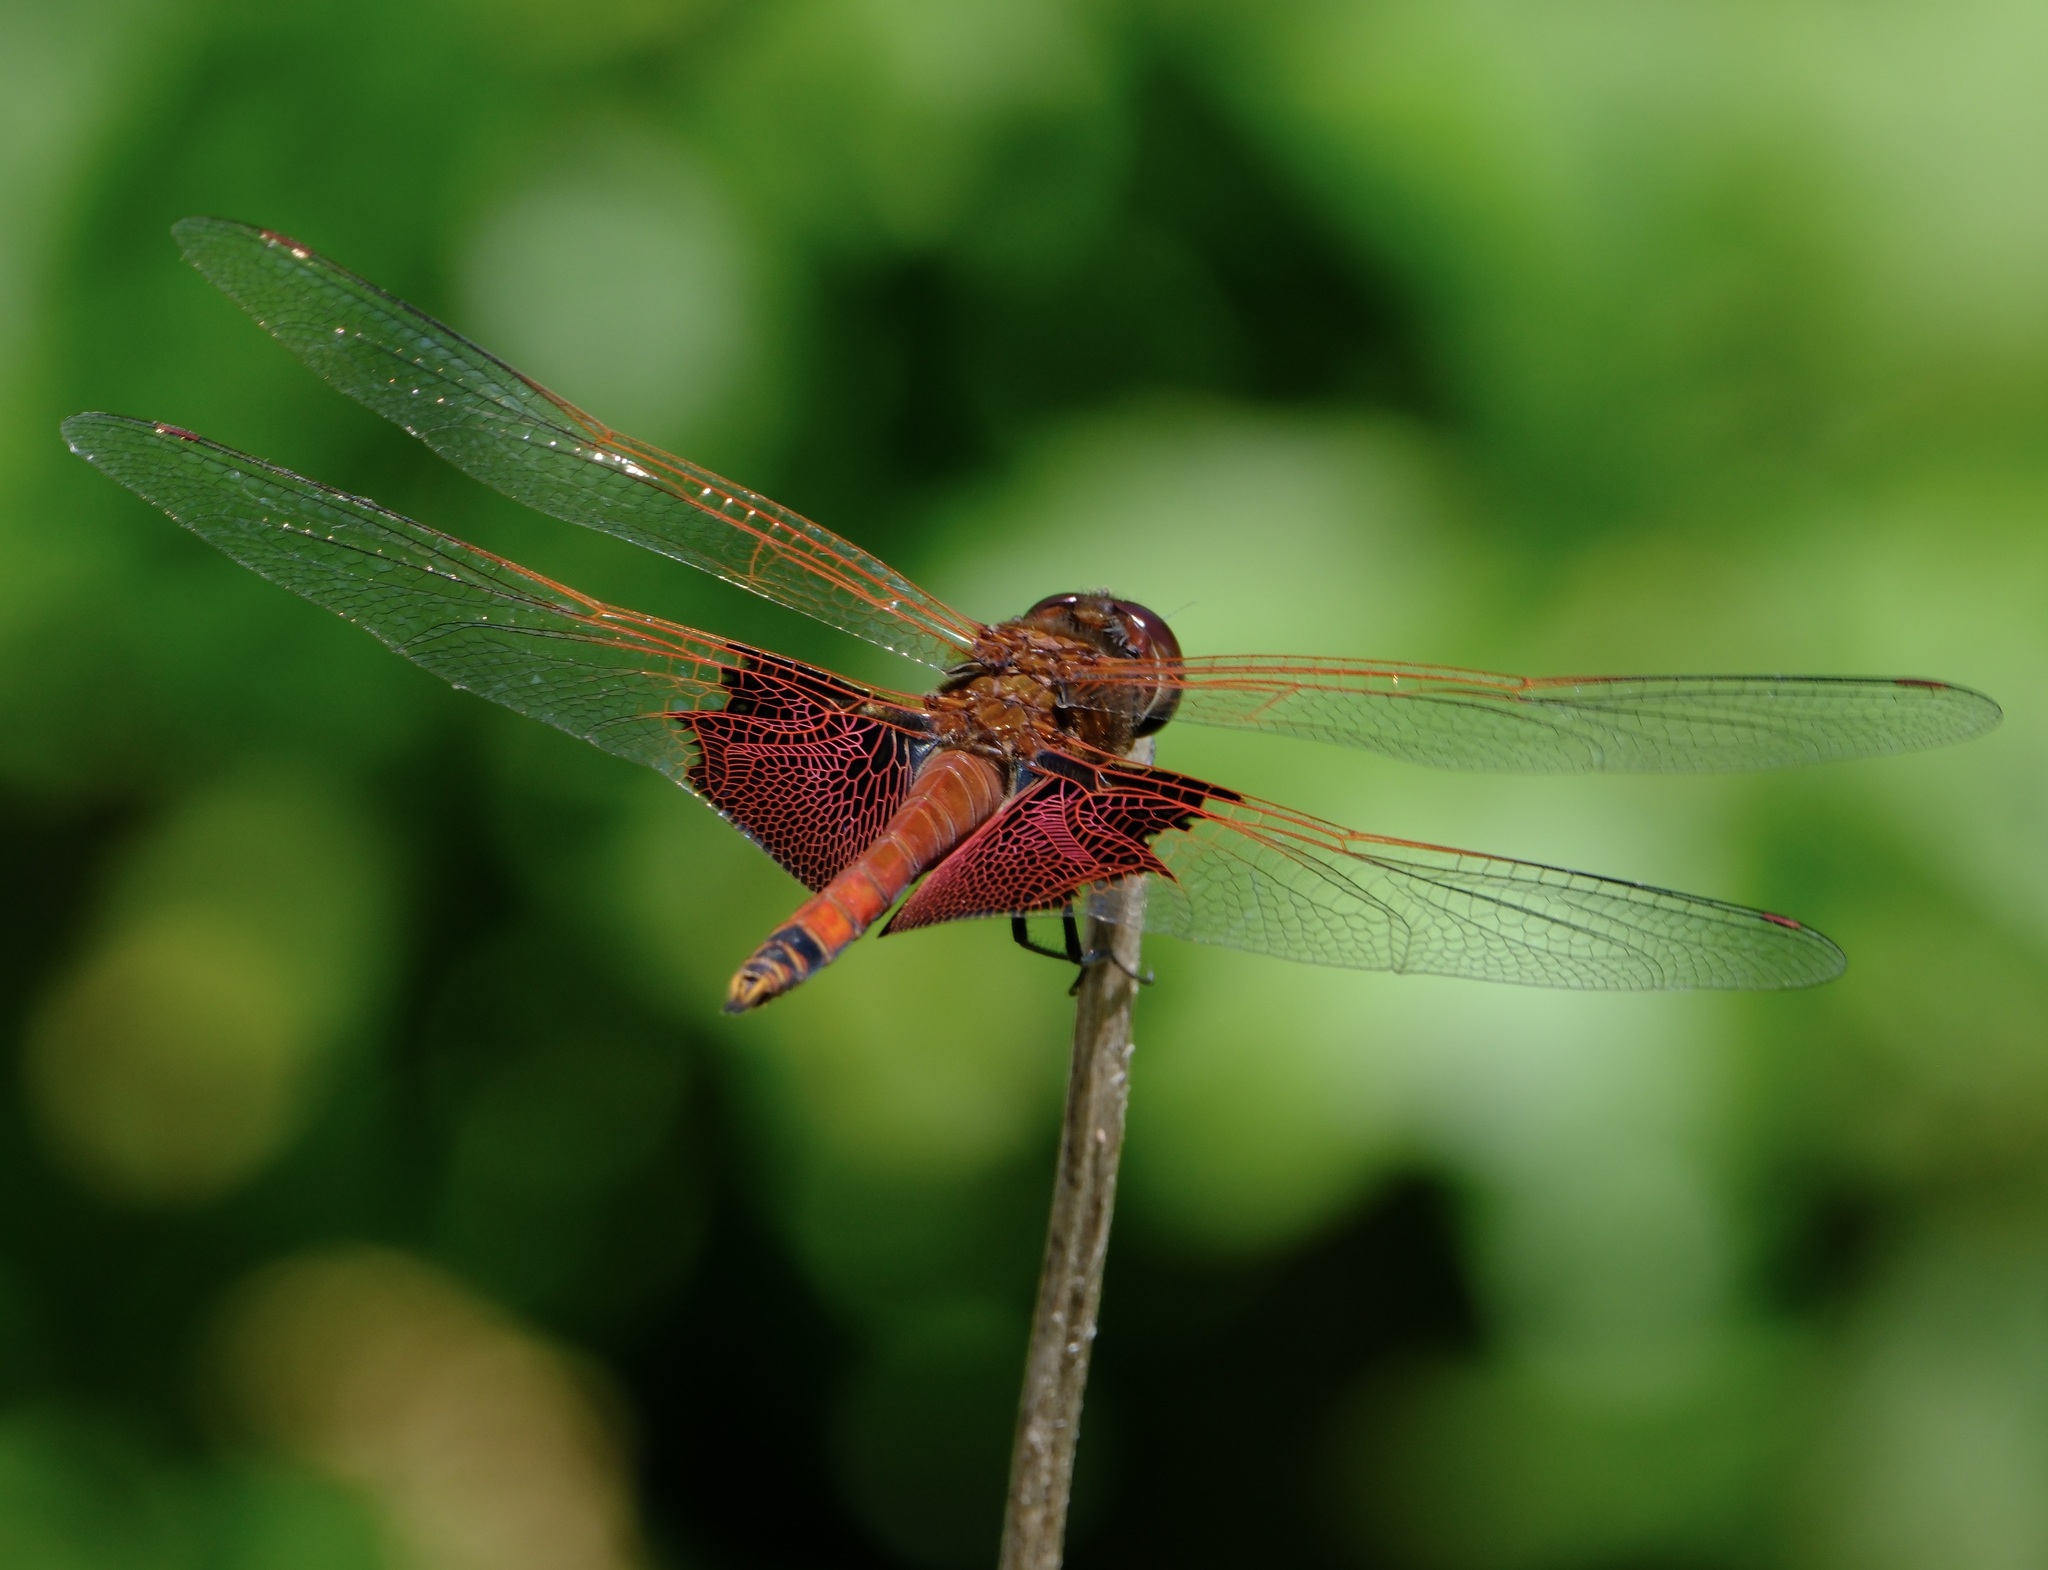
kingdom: Animalia
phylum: Arthropoda
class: Insecta
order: Odonata
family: Libellulidae
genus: Tramea
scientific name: Tramea carolina
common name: Carolina saddlebags
